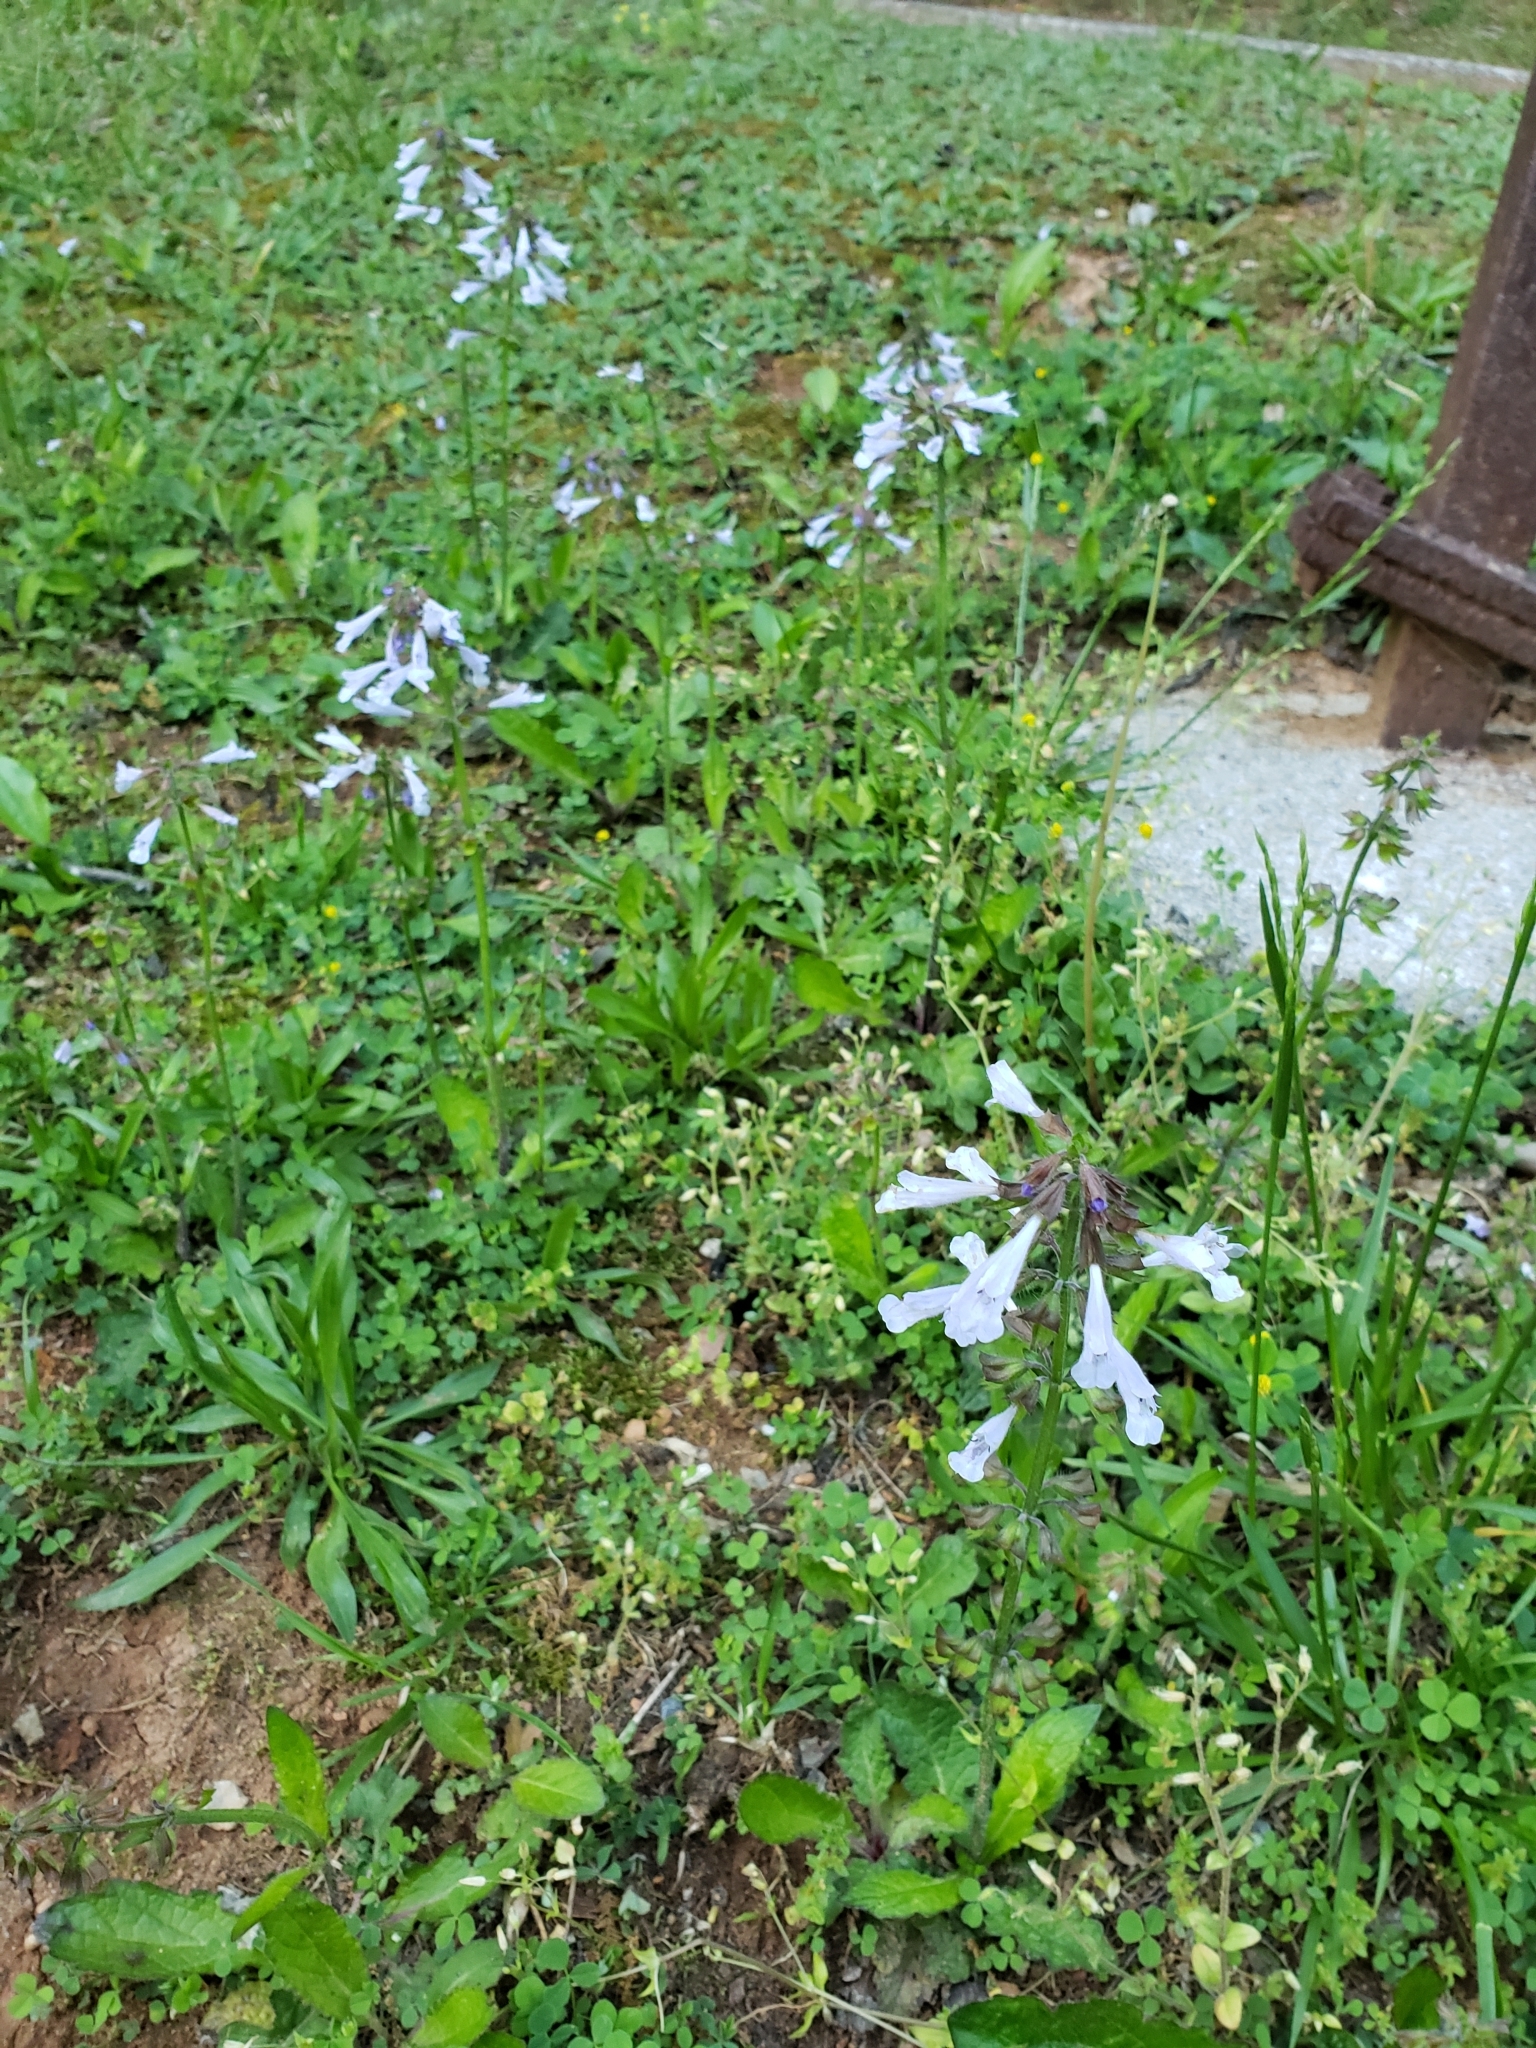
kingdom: Plantae
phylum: Tracheophyta
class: Magnoliopsida
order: Lamiales
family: Lamiaceae
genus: Salvia
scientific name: Salvia lyrata
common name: Cancerweed
